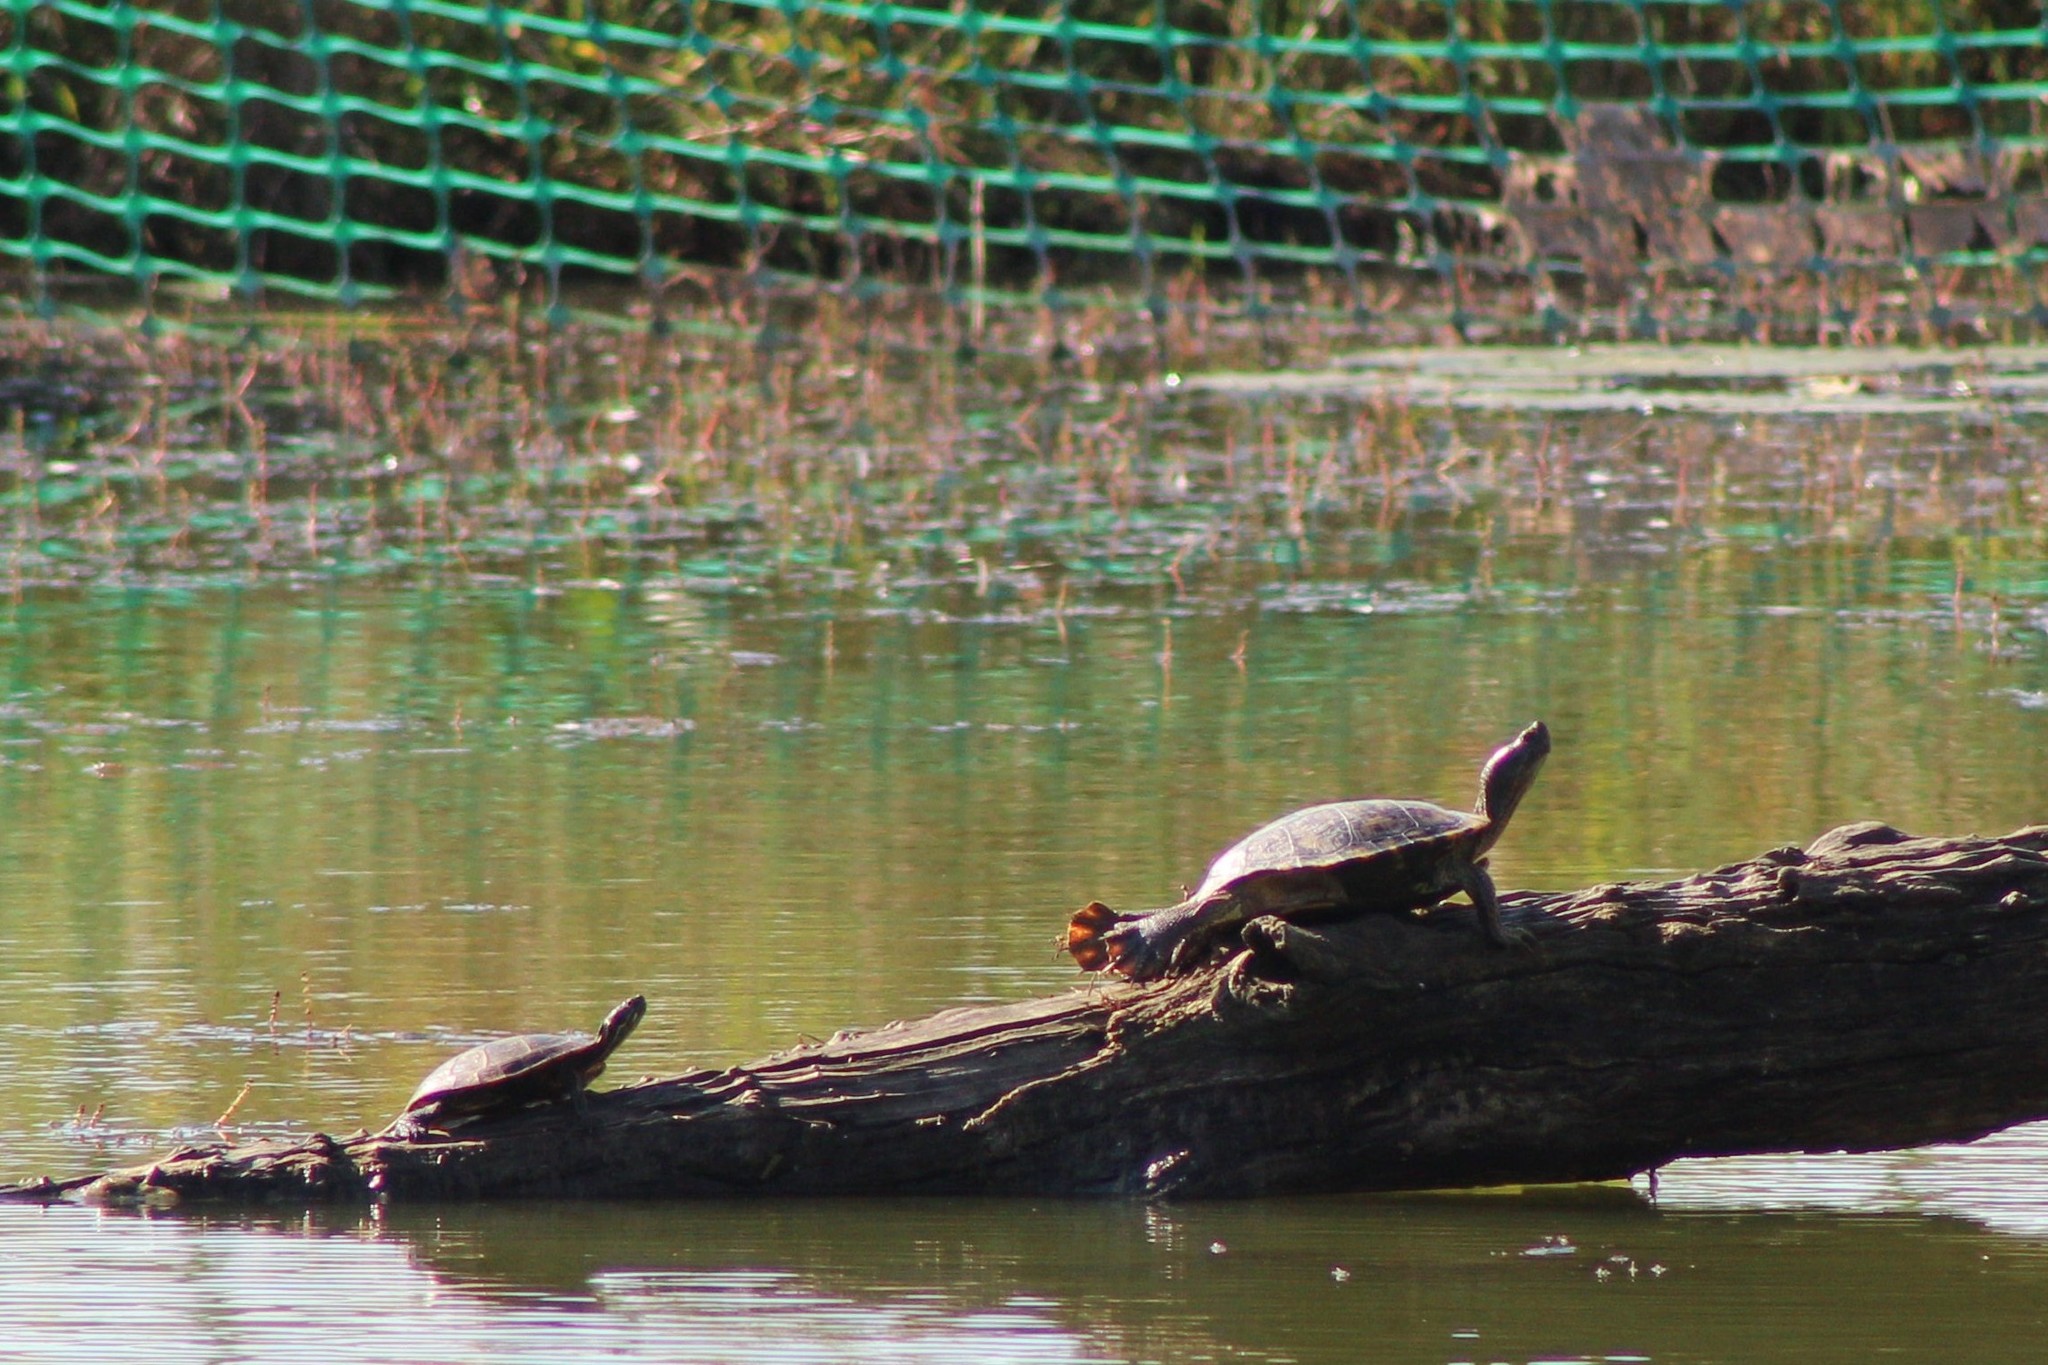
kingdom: Animalia
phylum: Chordata
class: Testudines
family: Emydidae
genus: Trachemys
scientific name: Trachemys scripta
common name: Slider
